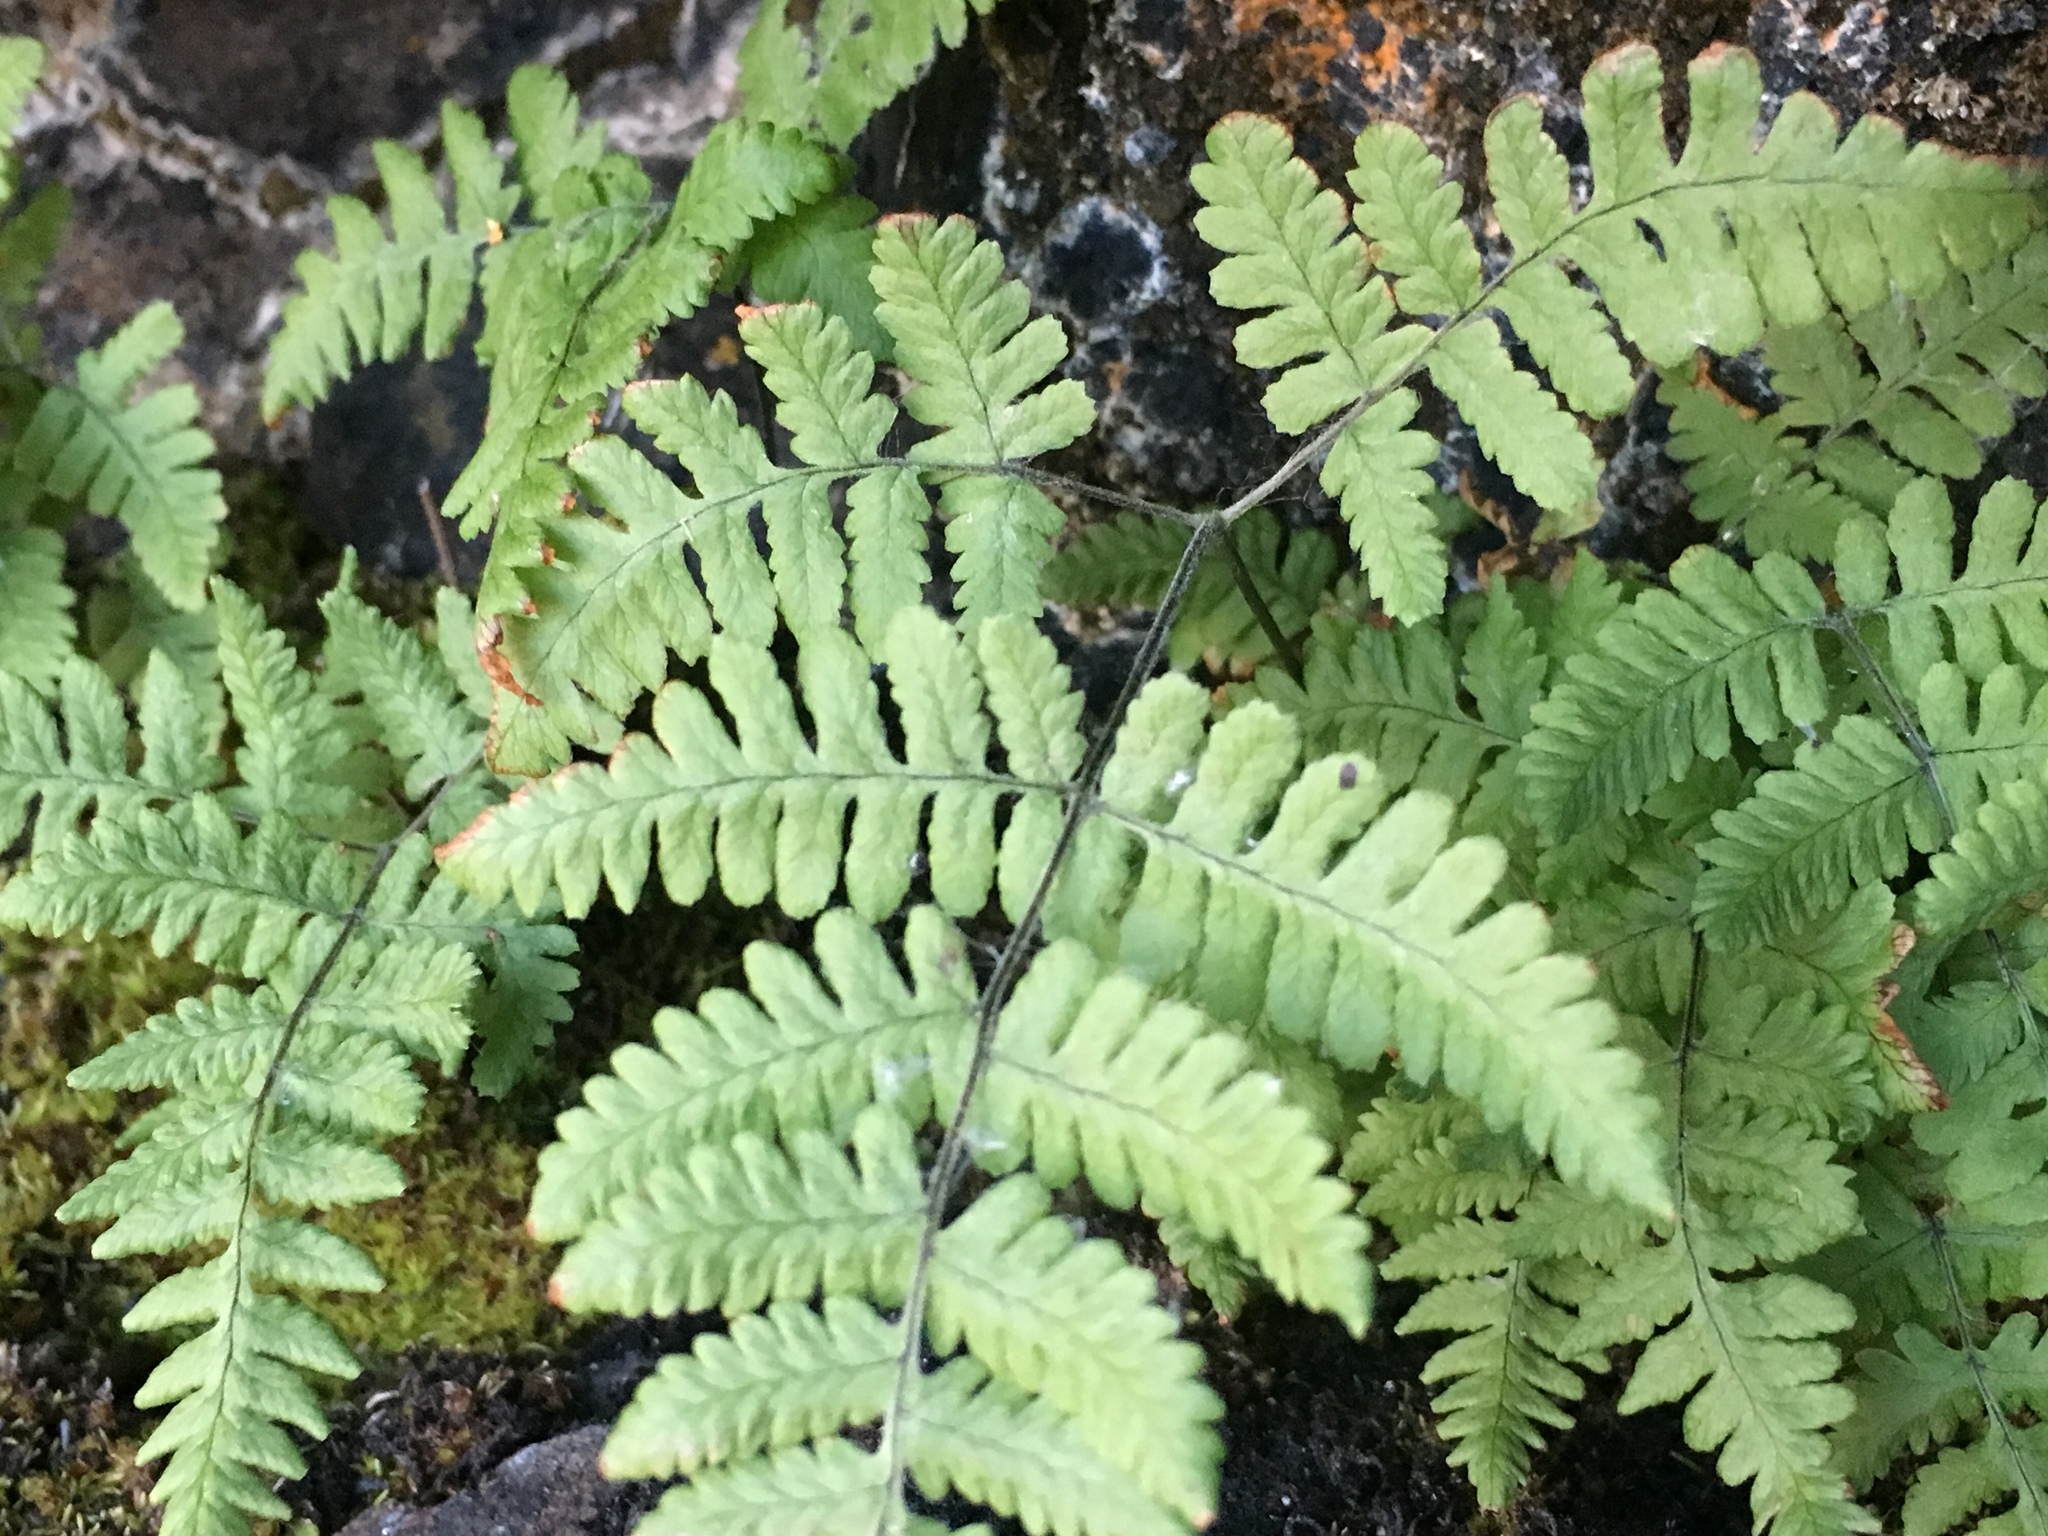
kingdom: Plantae
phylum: Tracheophyta
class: Polypodiopsida
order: Polypodiales
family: Cystopteridaceae
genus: Gymnocarpium
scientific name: Gymnocarpium robertianum
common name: Limestone fern
